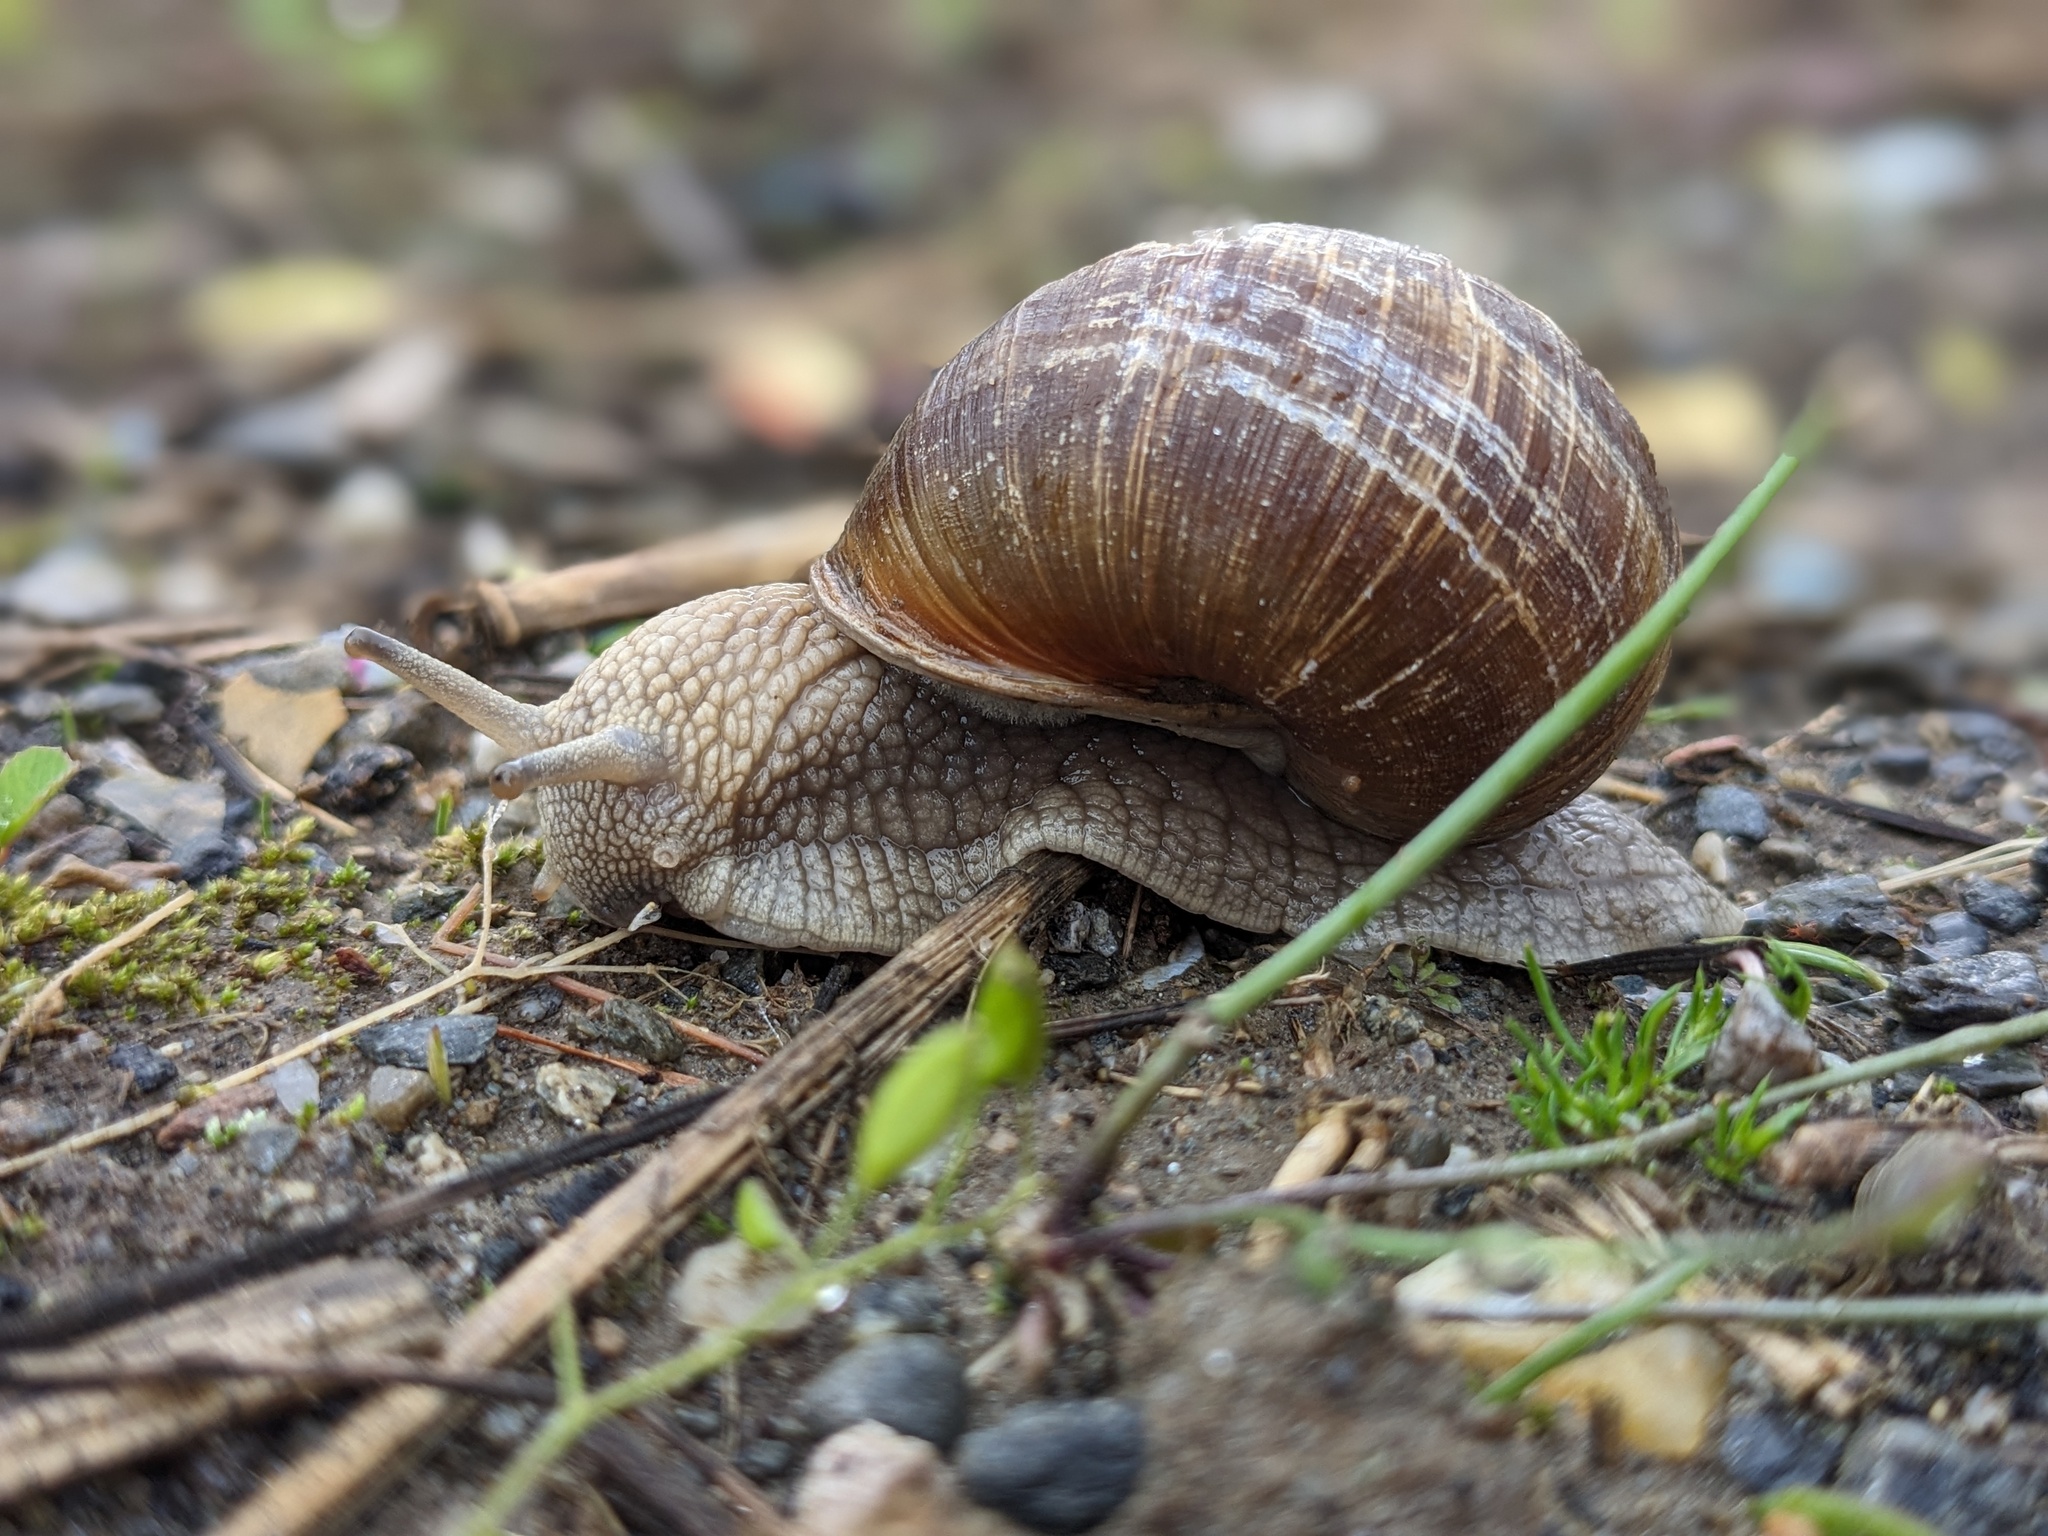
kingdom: Animalia
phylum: Mollusca
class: Gastropoda
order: Stylommatophora
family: Helicidae
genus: Helix
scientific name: Helix pomatia
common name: Roman snail
